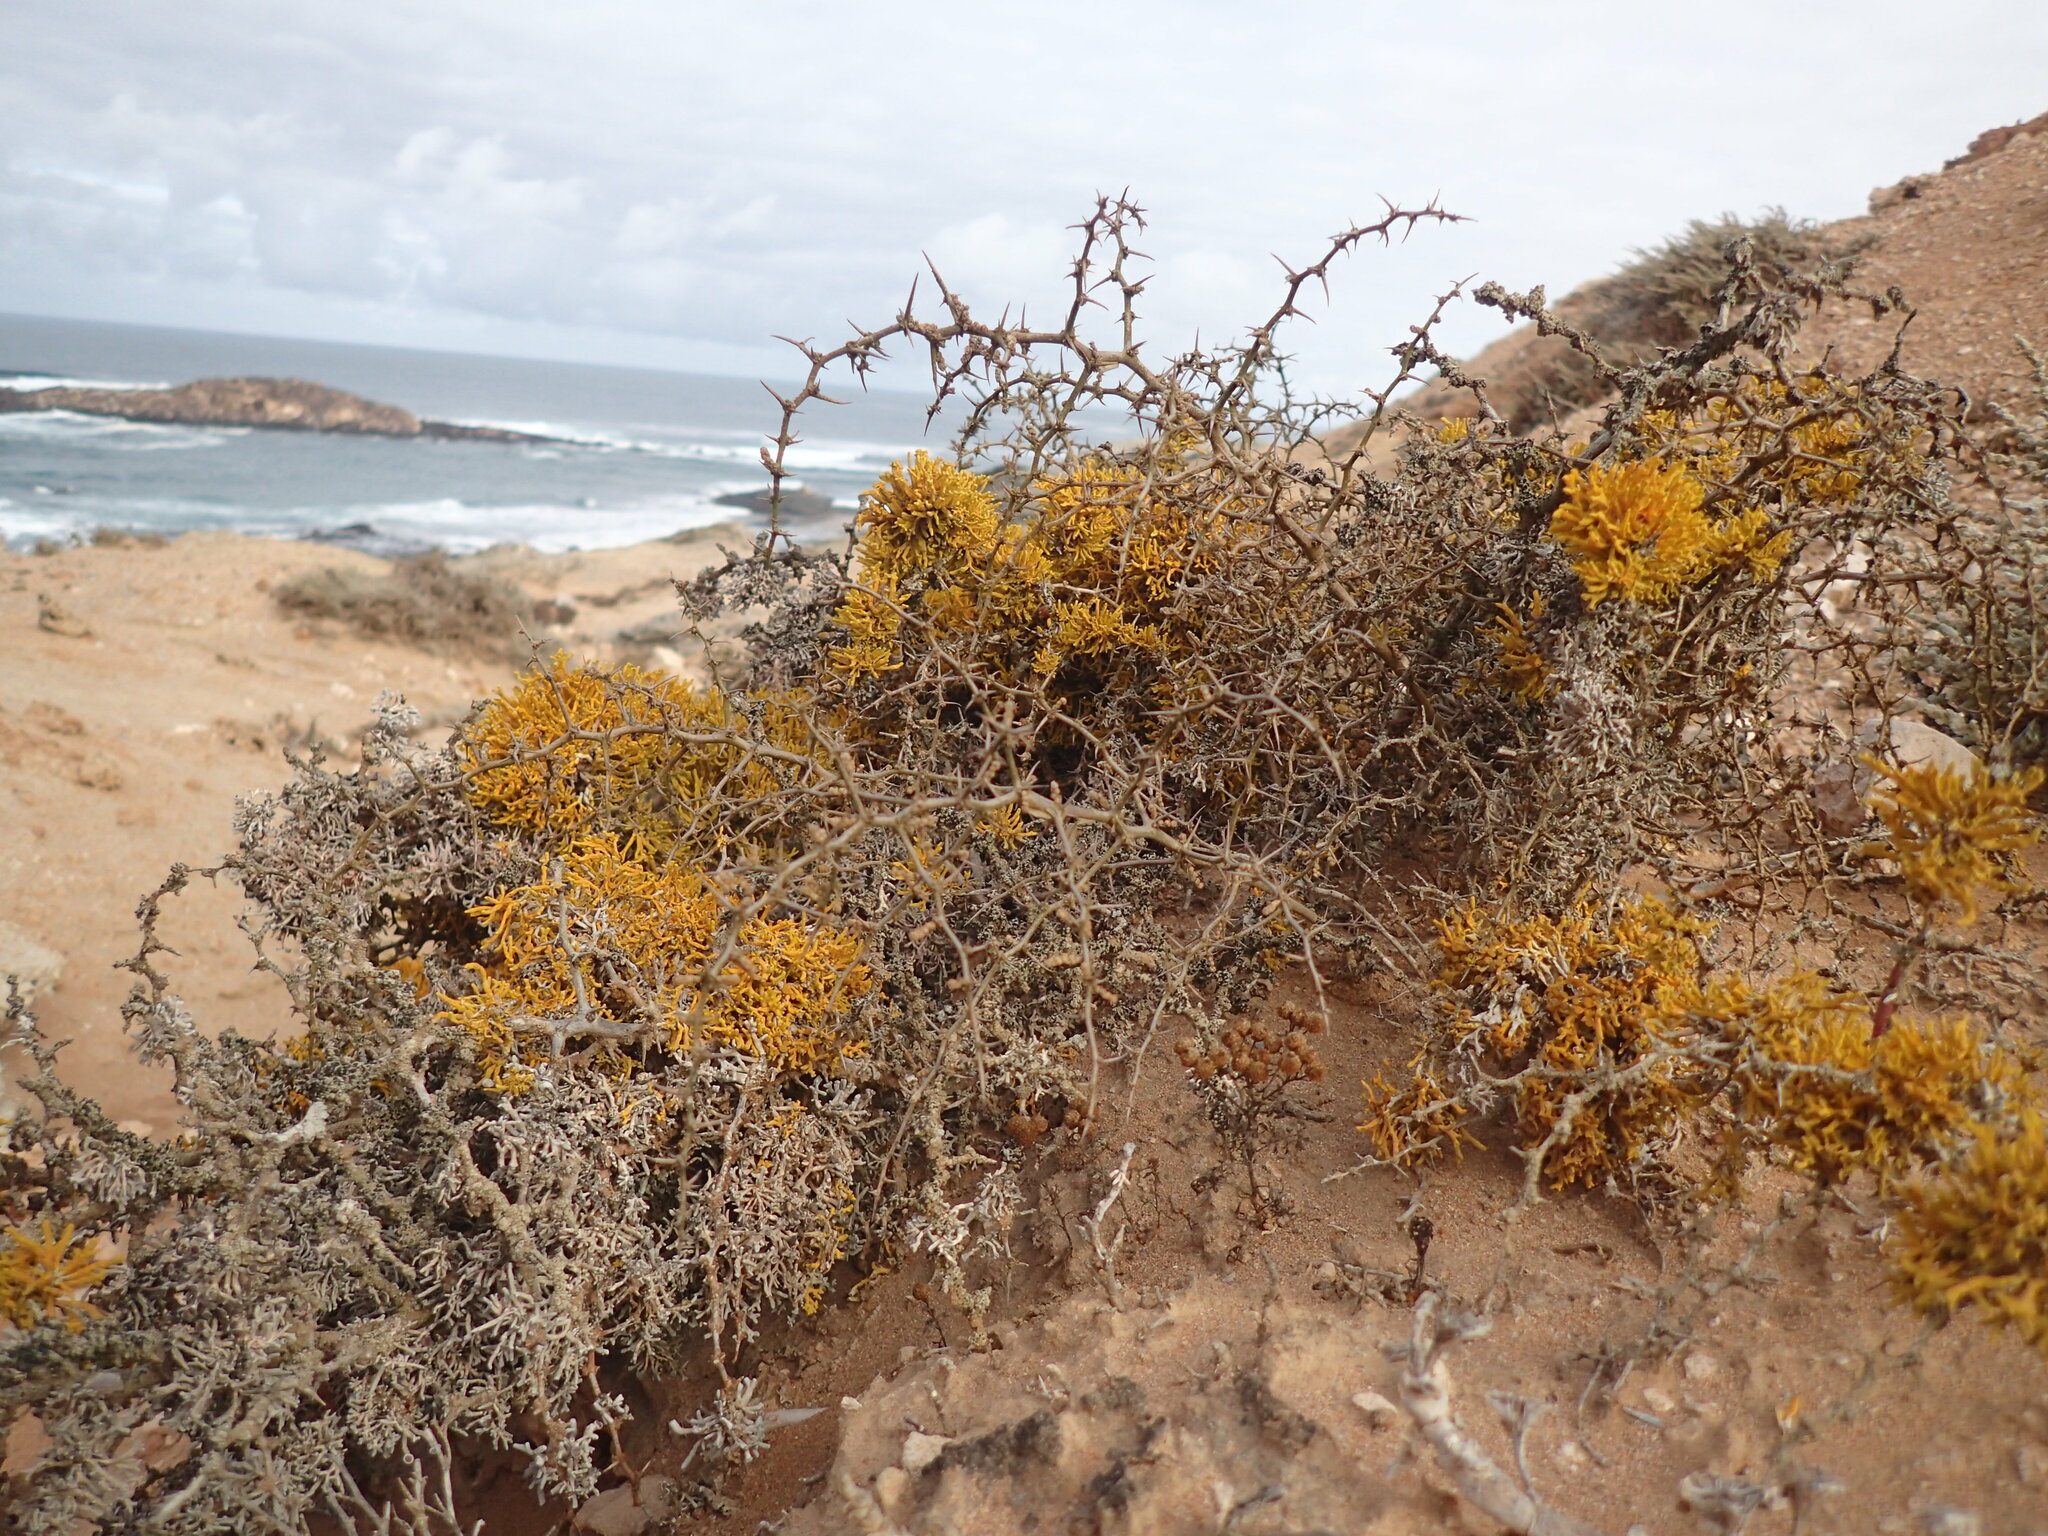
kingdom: Fungi
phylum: Ascomycota
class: Lecanoromycetes
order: Teloschistales
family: Teloschistaceae
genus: Dufourea
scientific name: Dufourea flammea
